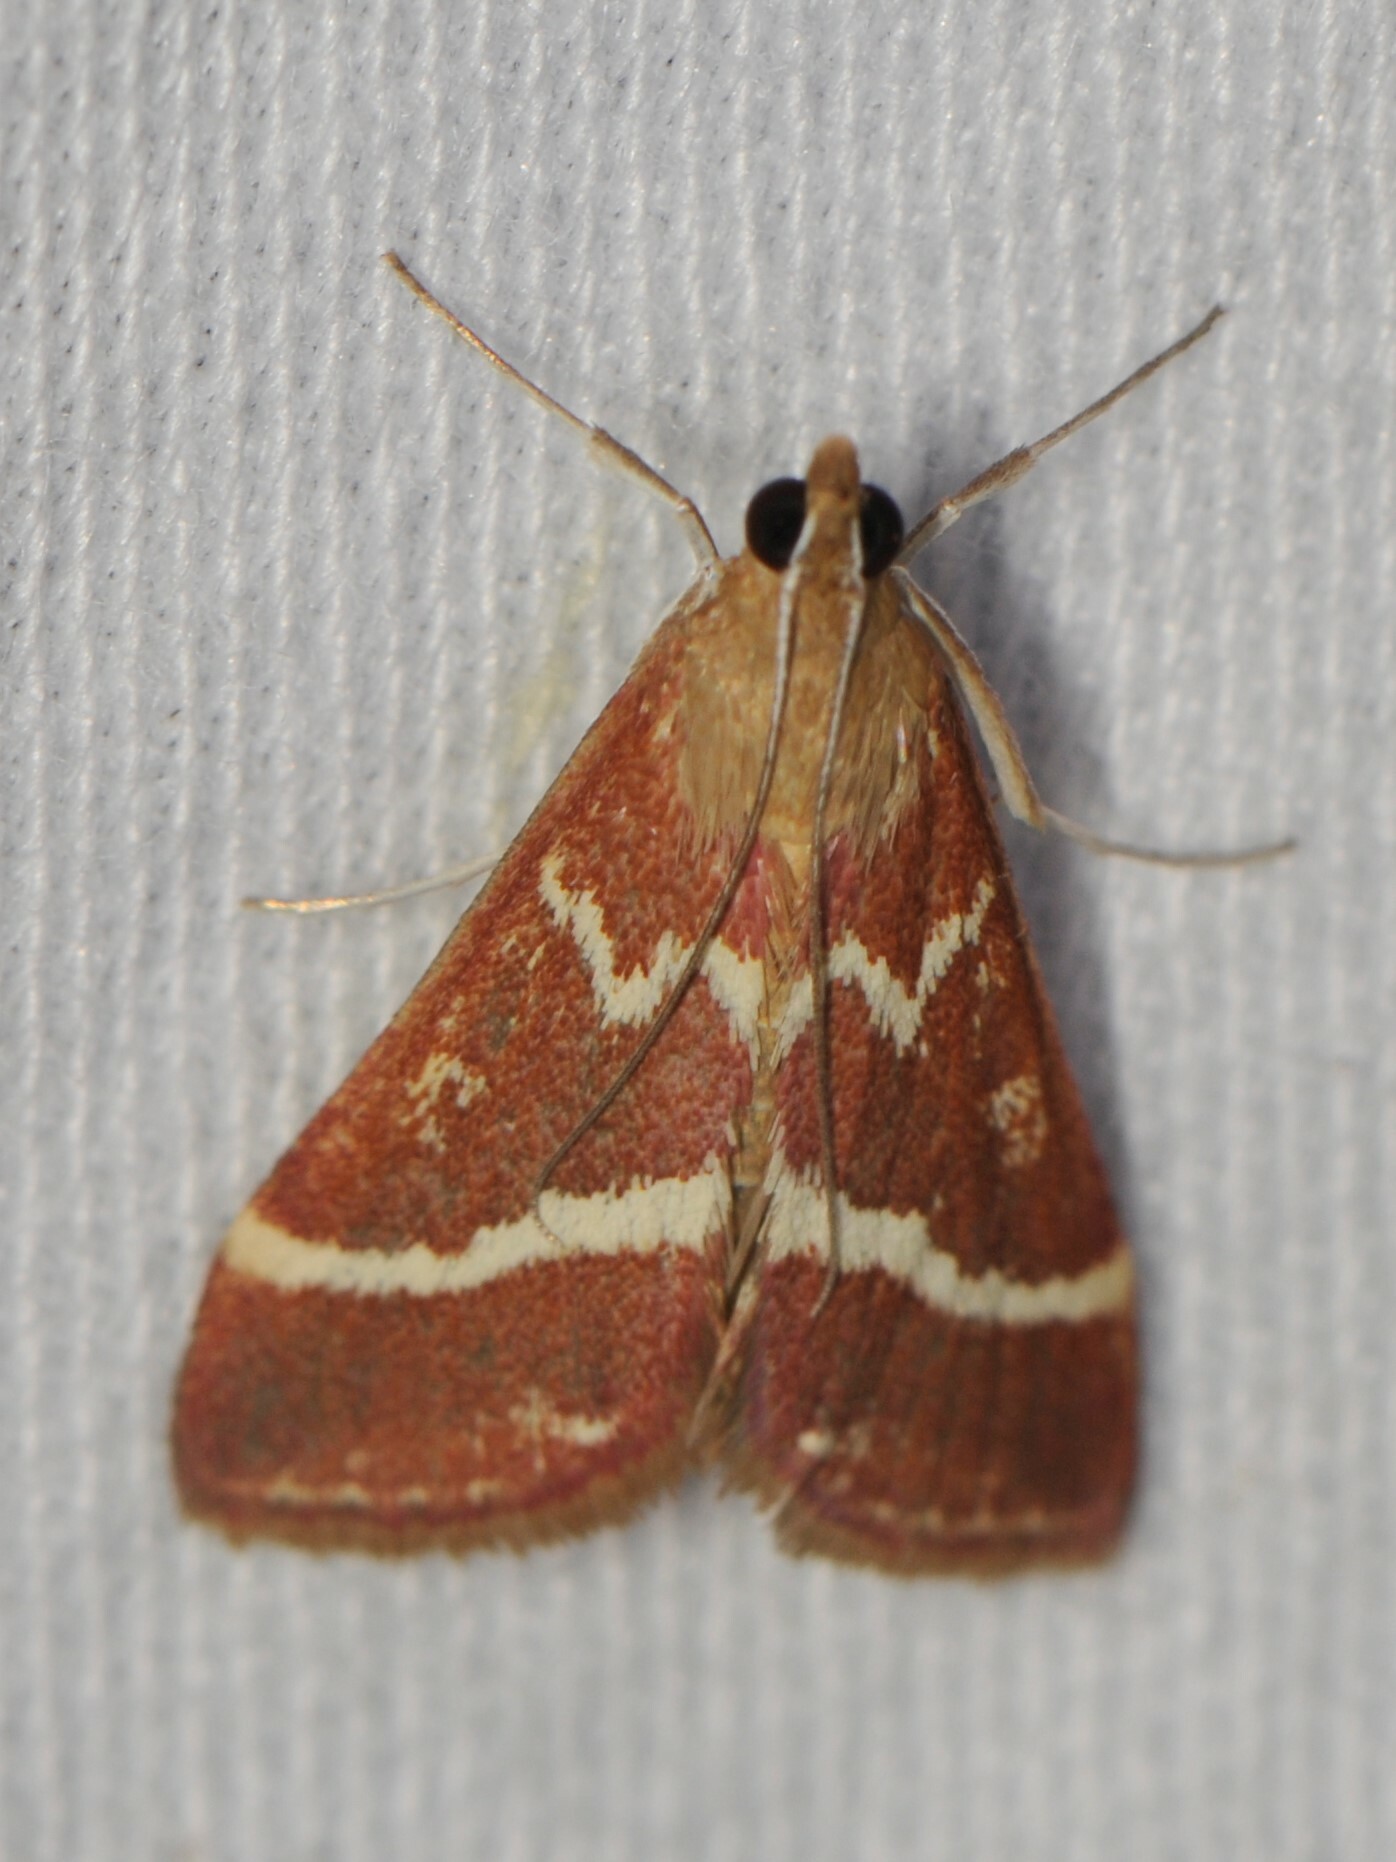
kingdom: Animalia
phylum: Arthropoda
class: Insecta
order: Lepidoptera
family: Crambidae
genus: Pyrausta
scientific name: Pyrausta volupialis
